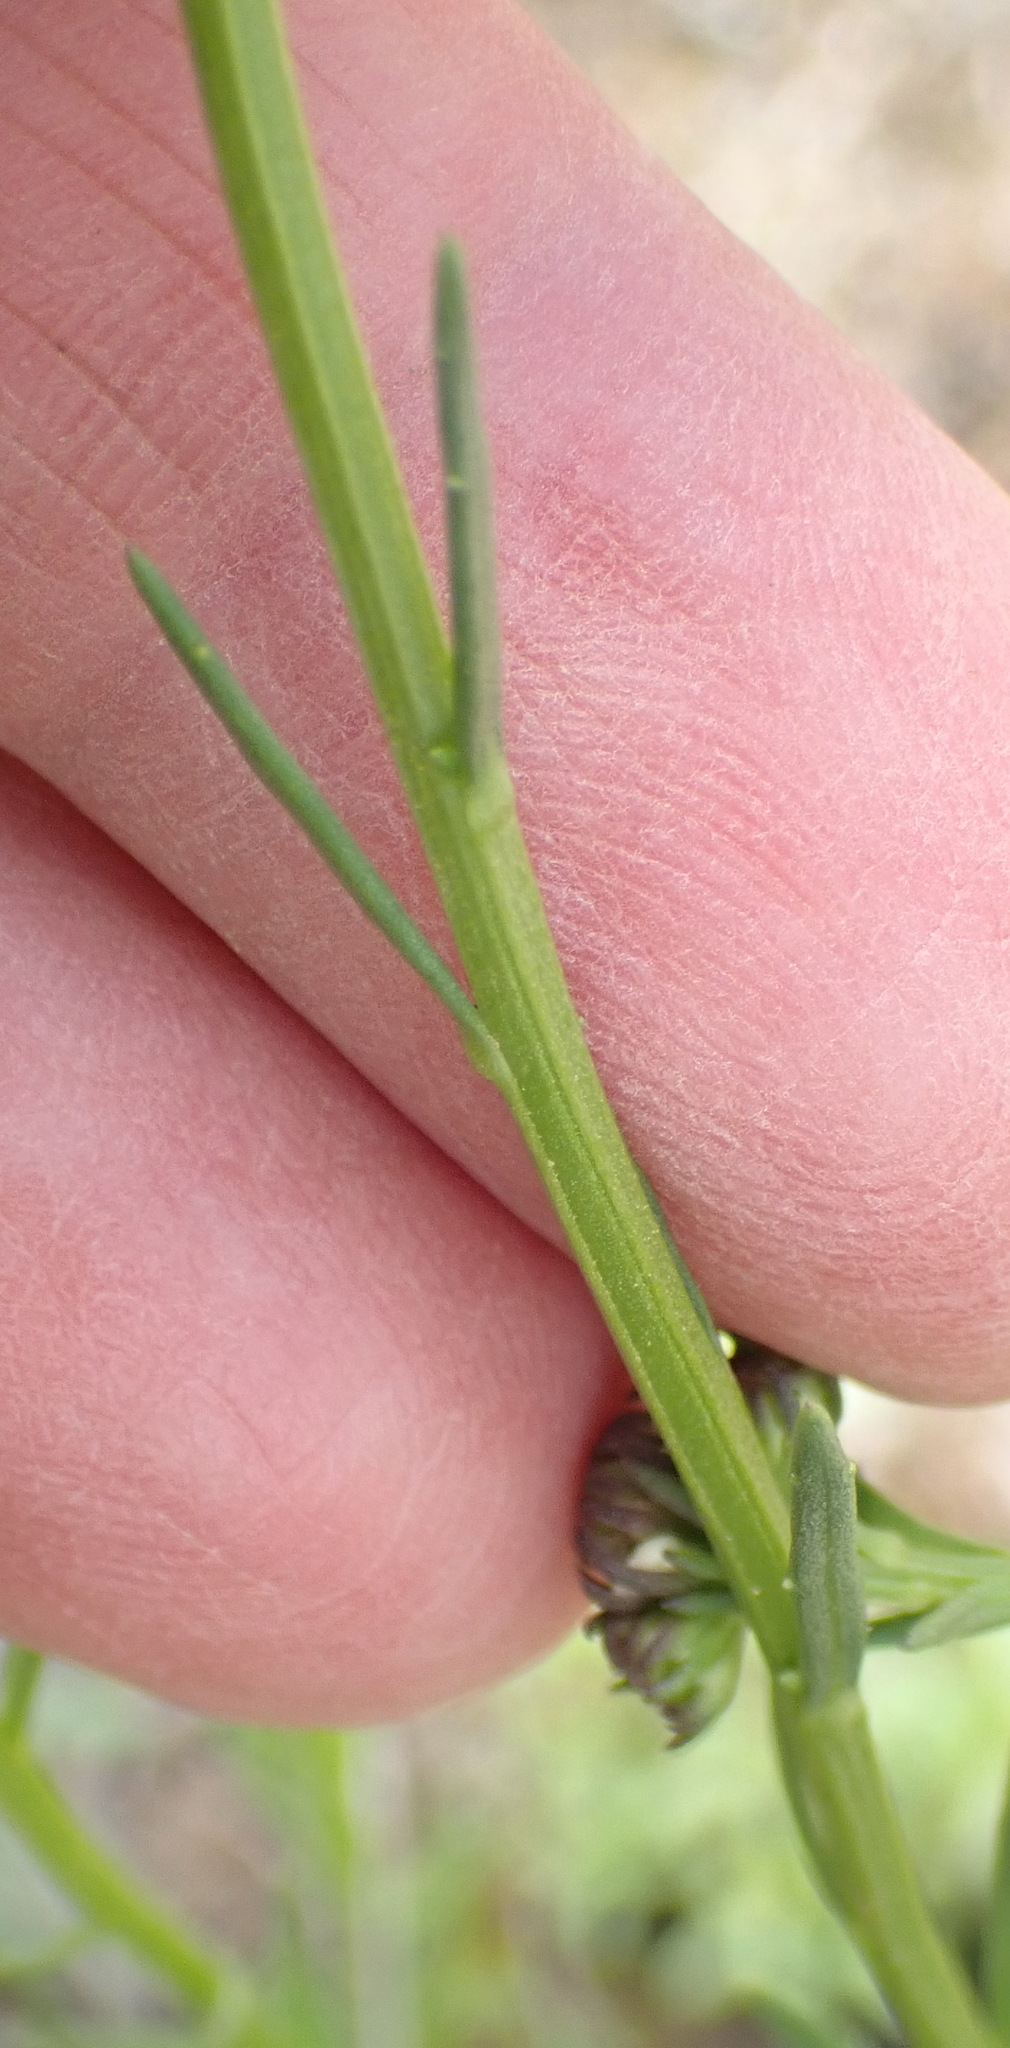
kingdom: Plantae
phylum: Tracheophyta
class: Magnoliopsida
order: Lamiales
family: Scrophulariaceae
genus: Pseudoselago
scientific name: Pseudoselago outeniquensis
